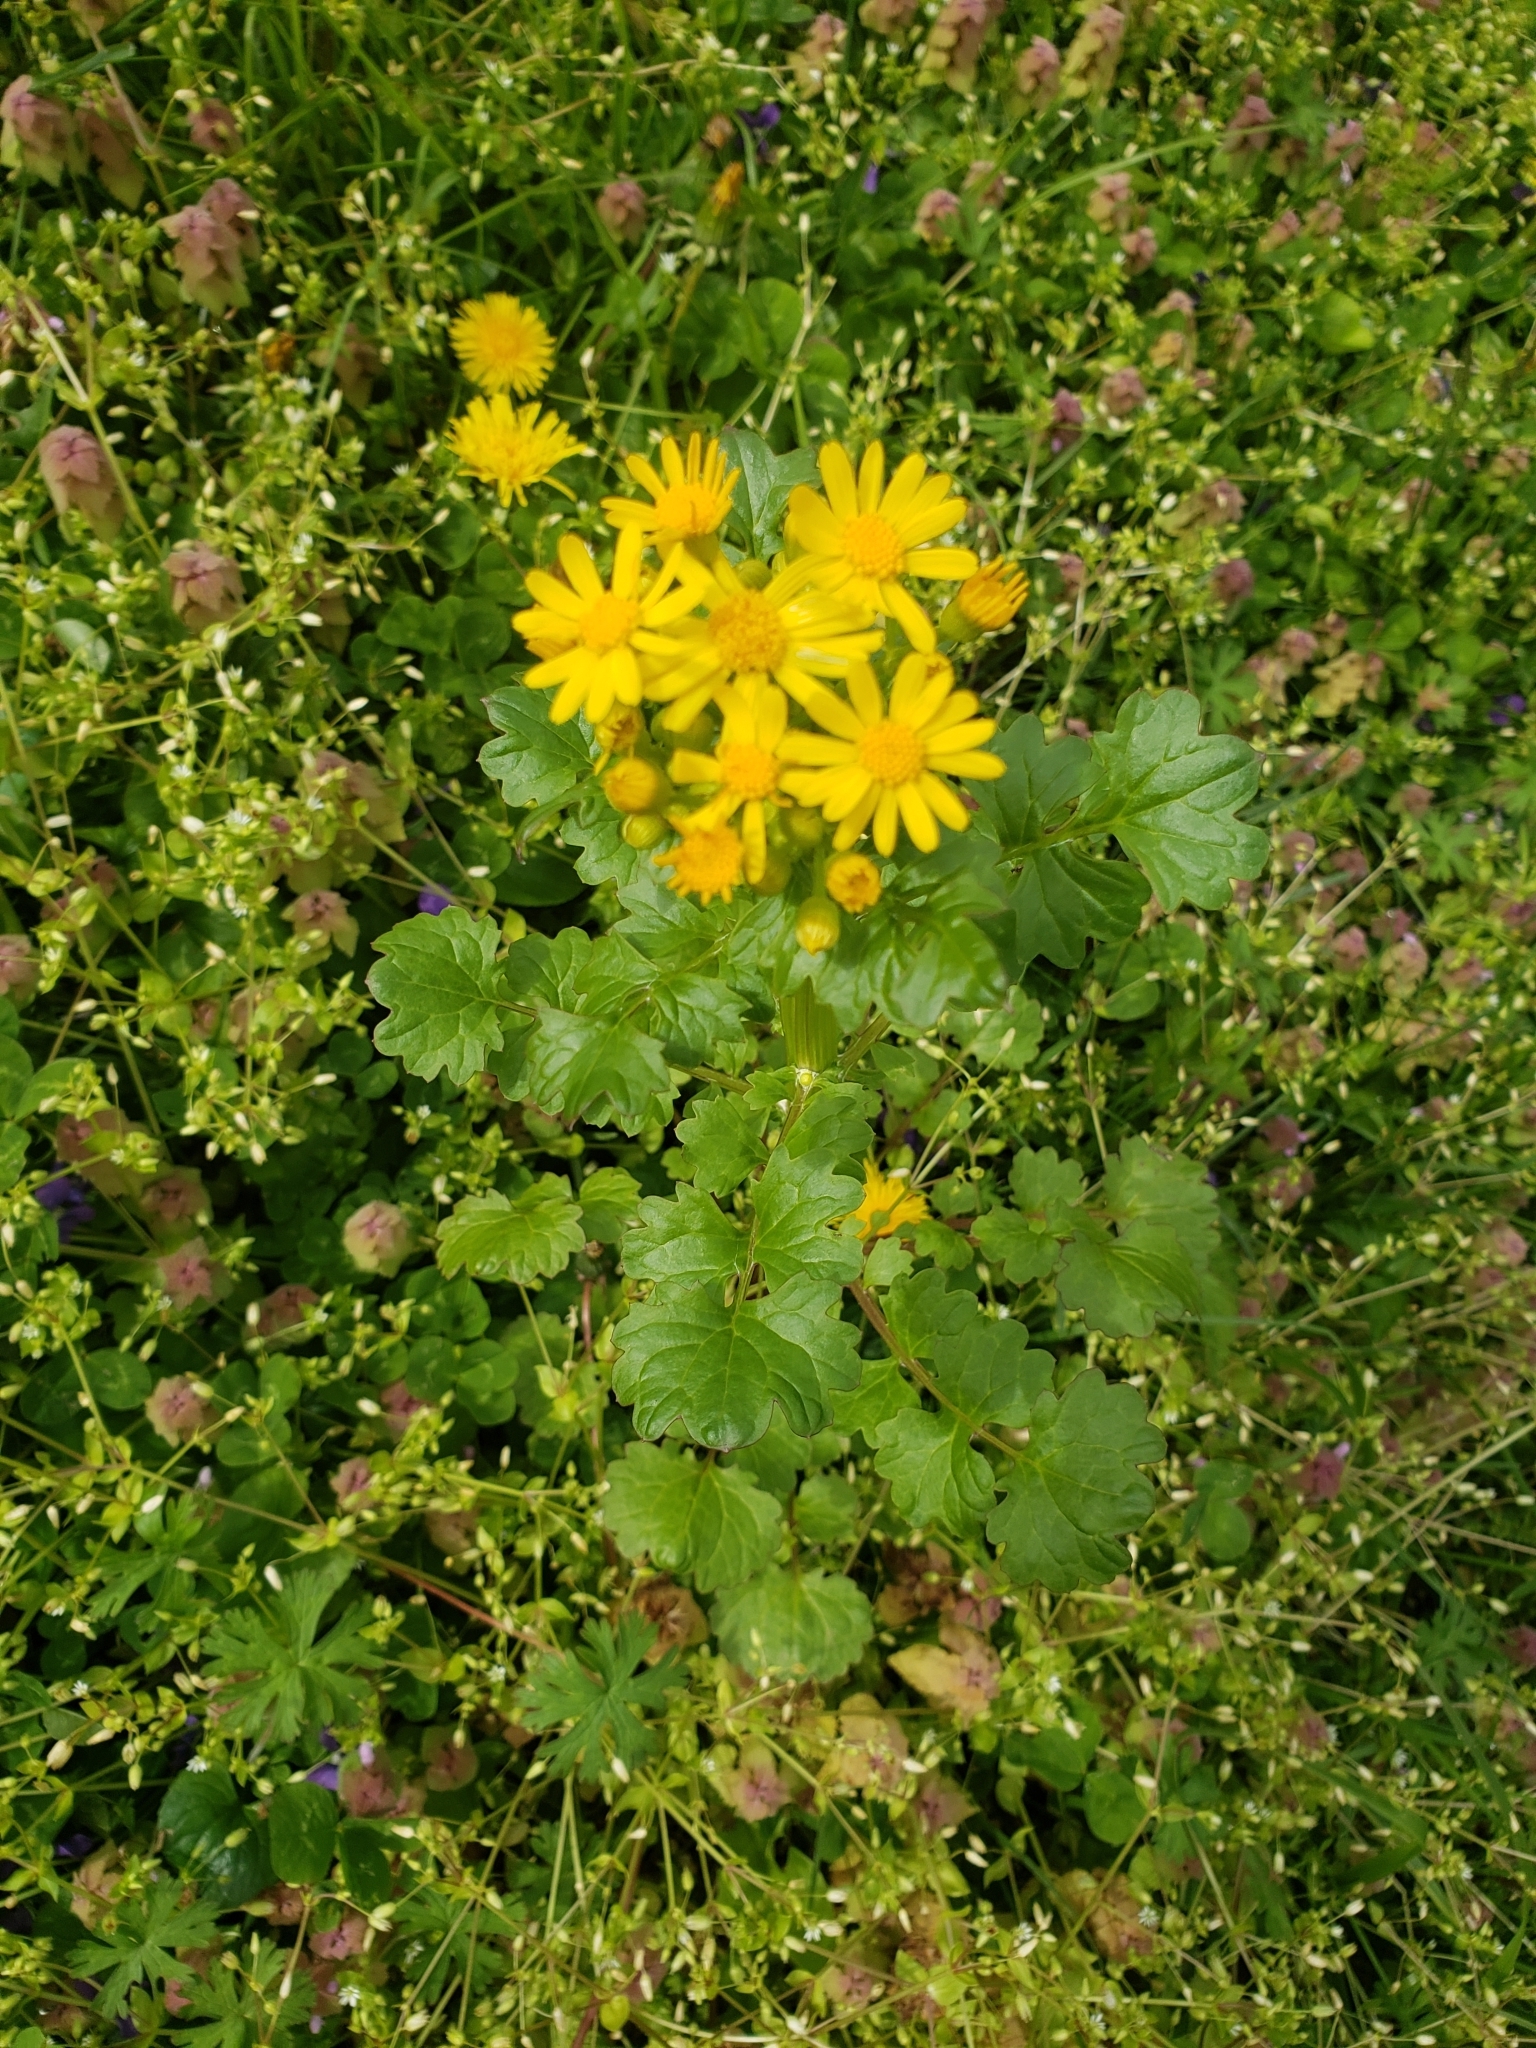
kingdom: Plantae
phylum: Tracheophyta
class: Magnoliopsida
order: Asterales
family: Asteraceae
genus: Packera
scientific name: Packera glabella
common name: Butterweed
